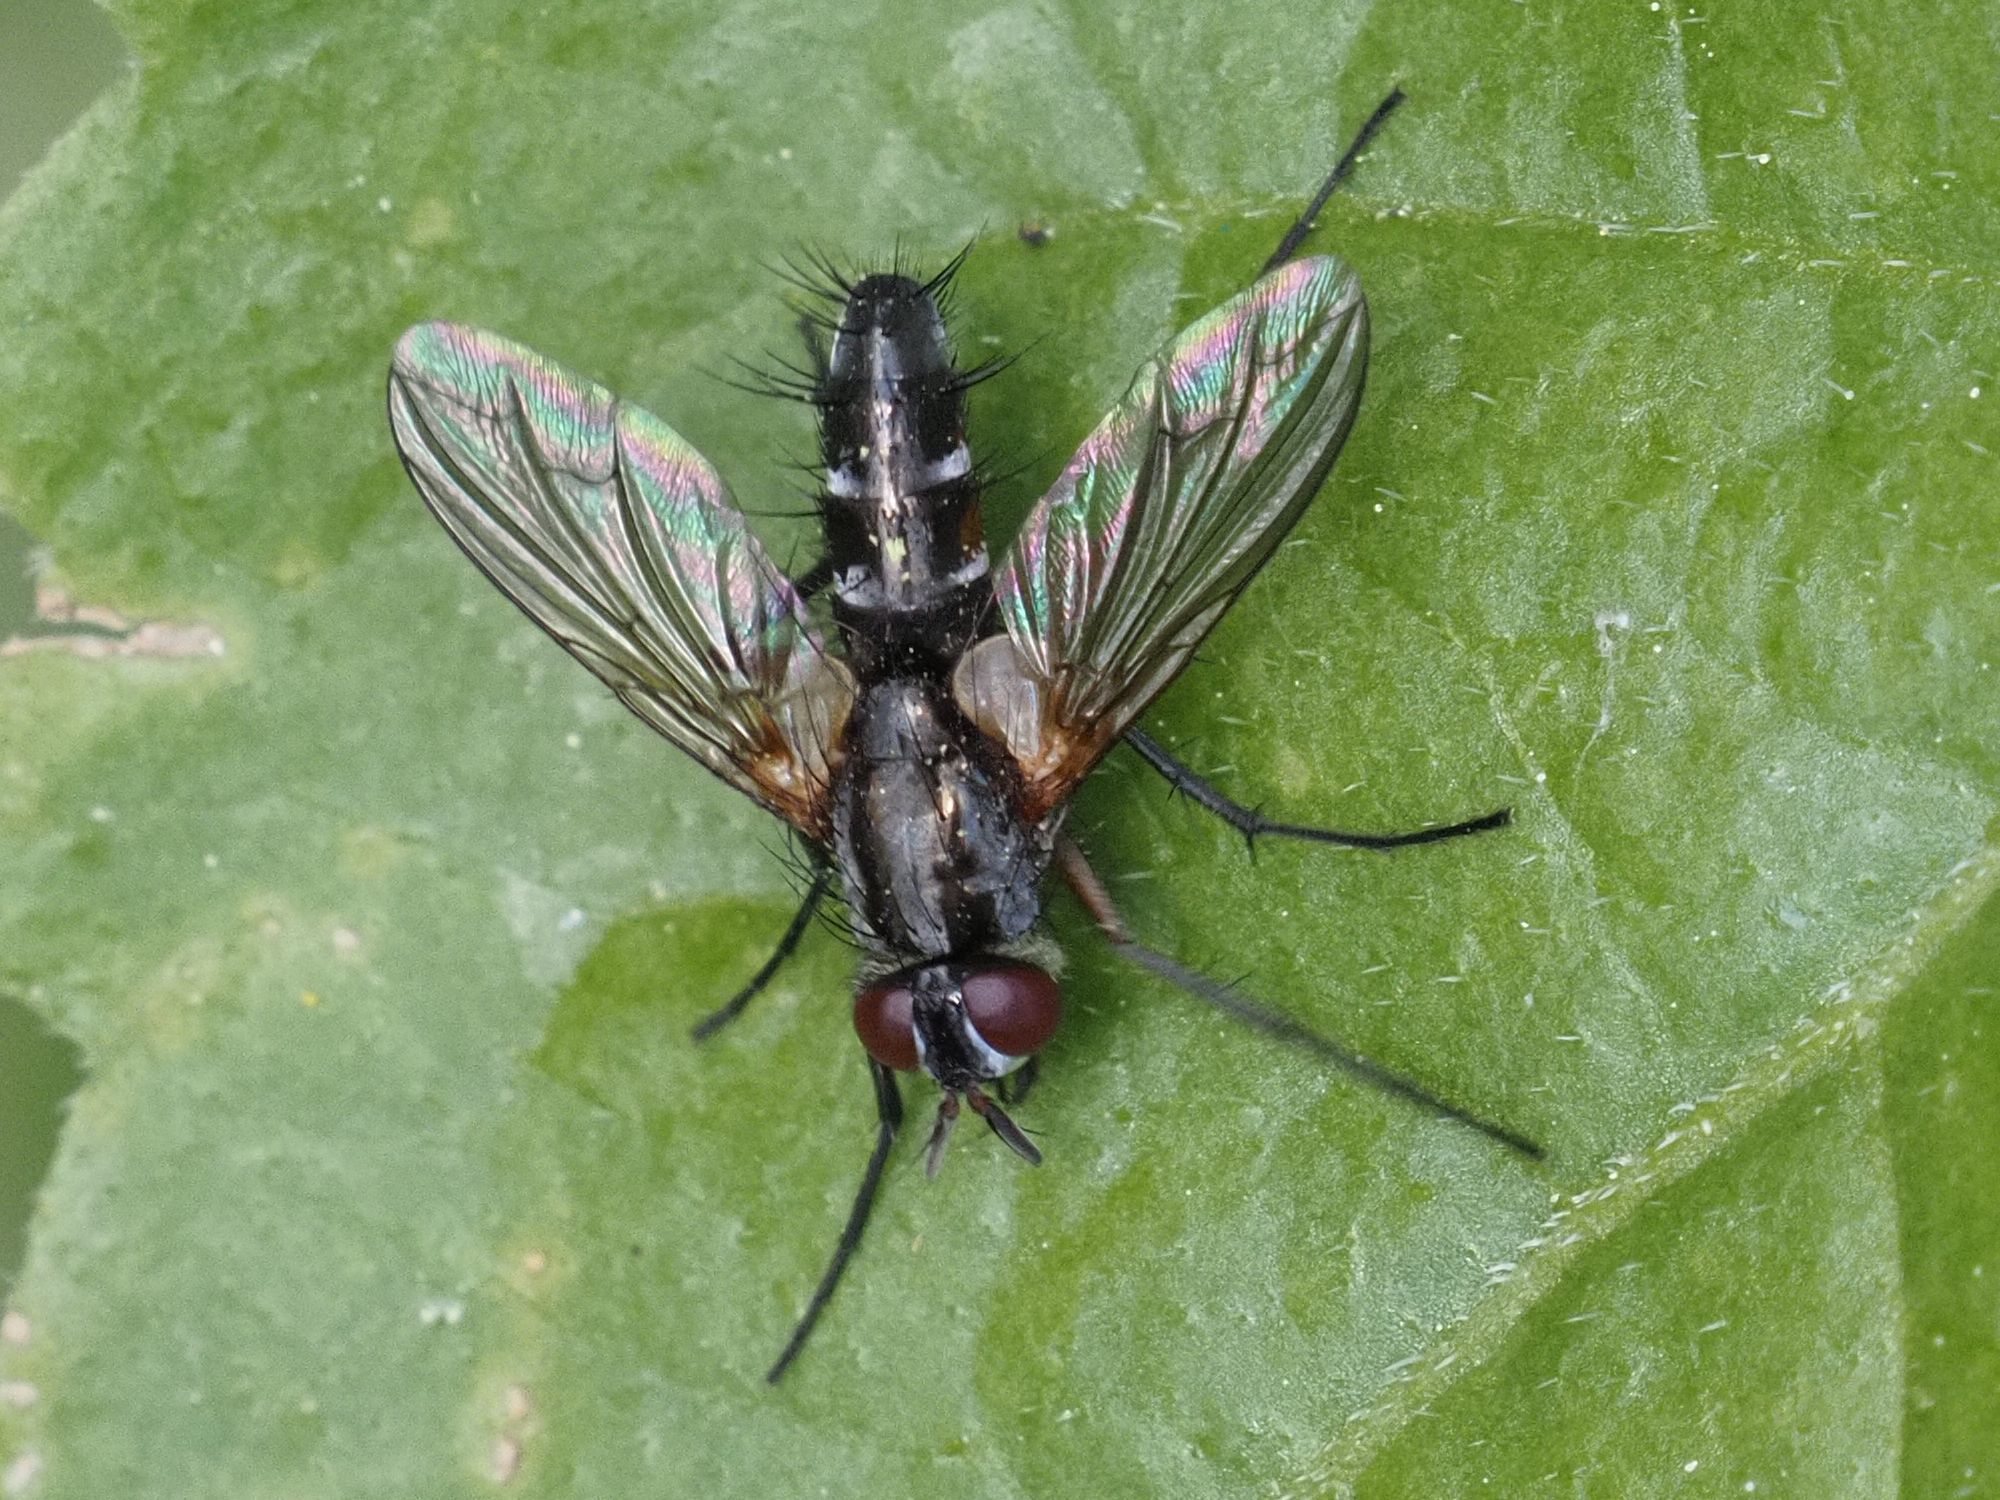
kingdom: Animalia
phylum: Arthropoda
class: Insecta
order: Diptera
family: Tachinidae
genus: Mintho
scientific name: Mintho rufiventris
